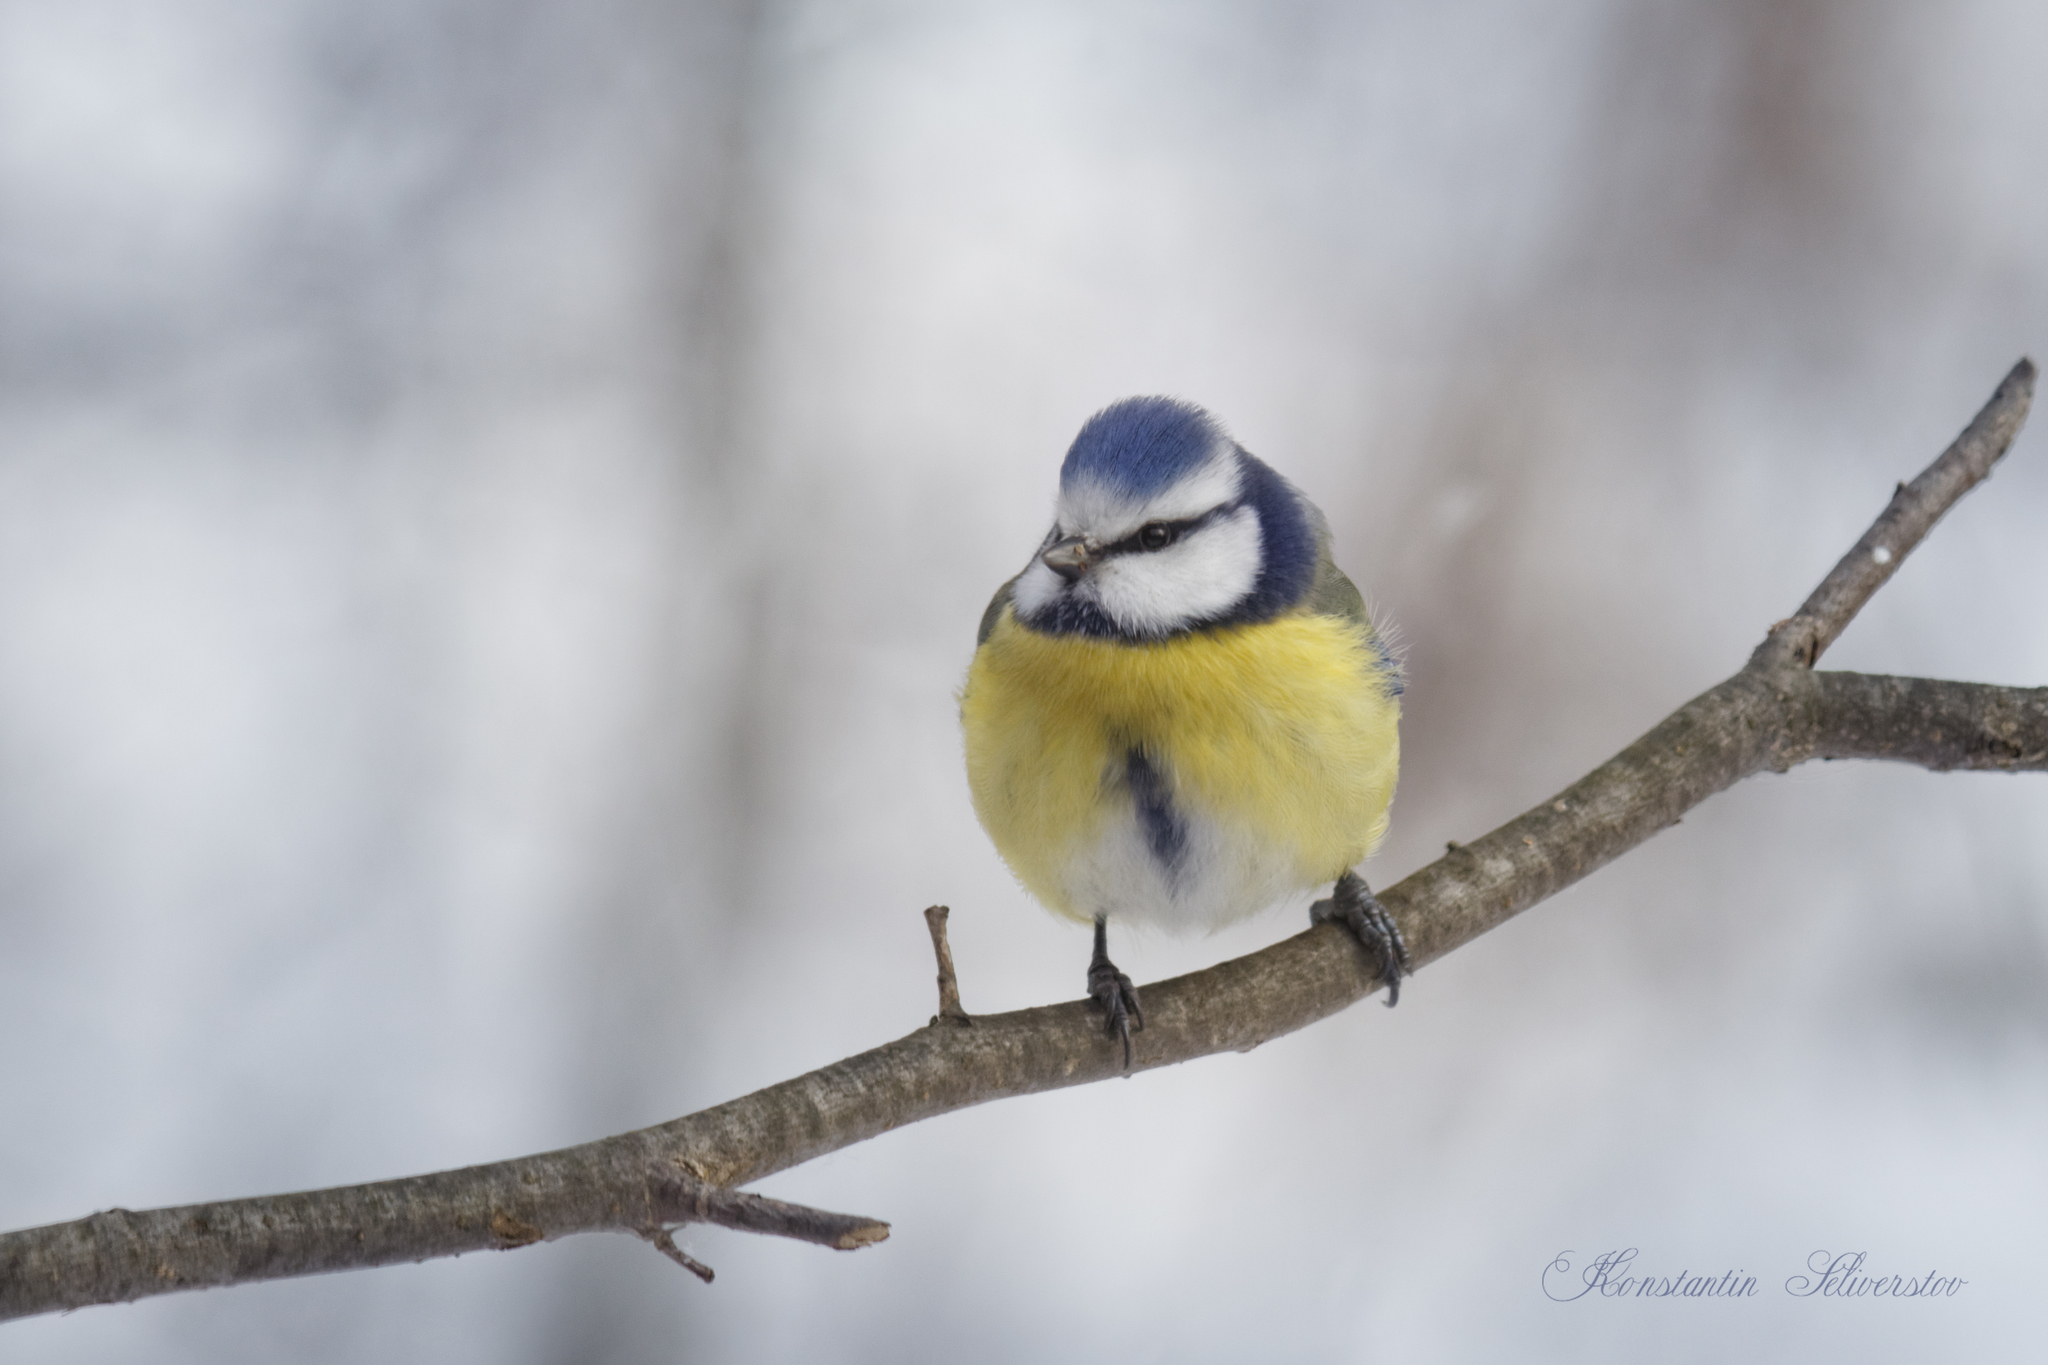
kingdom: Animalia
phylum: Chordata
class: Aves
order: Passeriformes
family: Paridae
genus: Cyanistes
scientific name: Cyanistes caeruleus
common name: Eurasian blue tit
